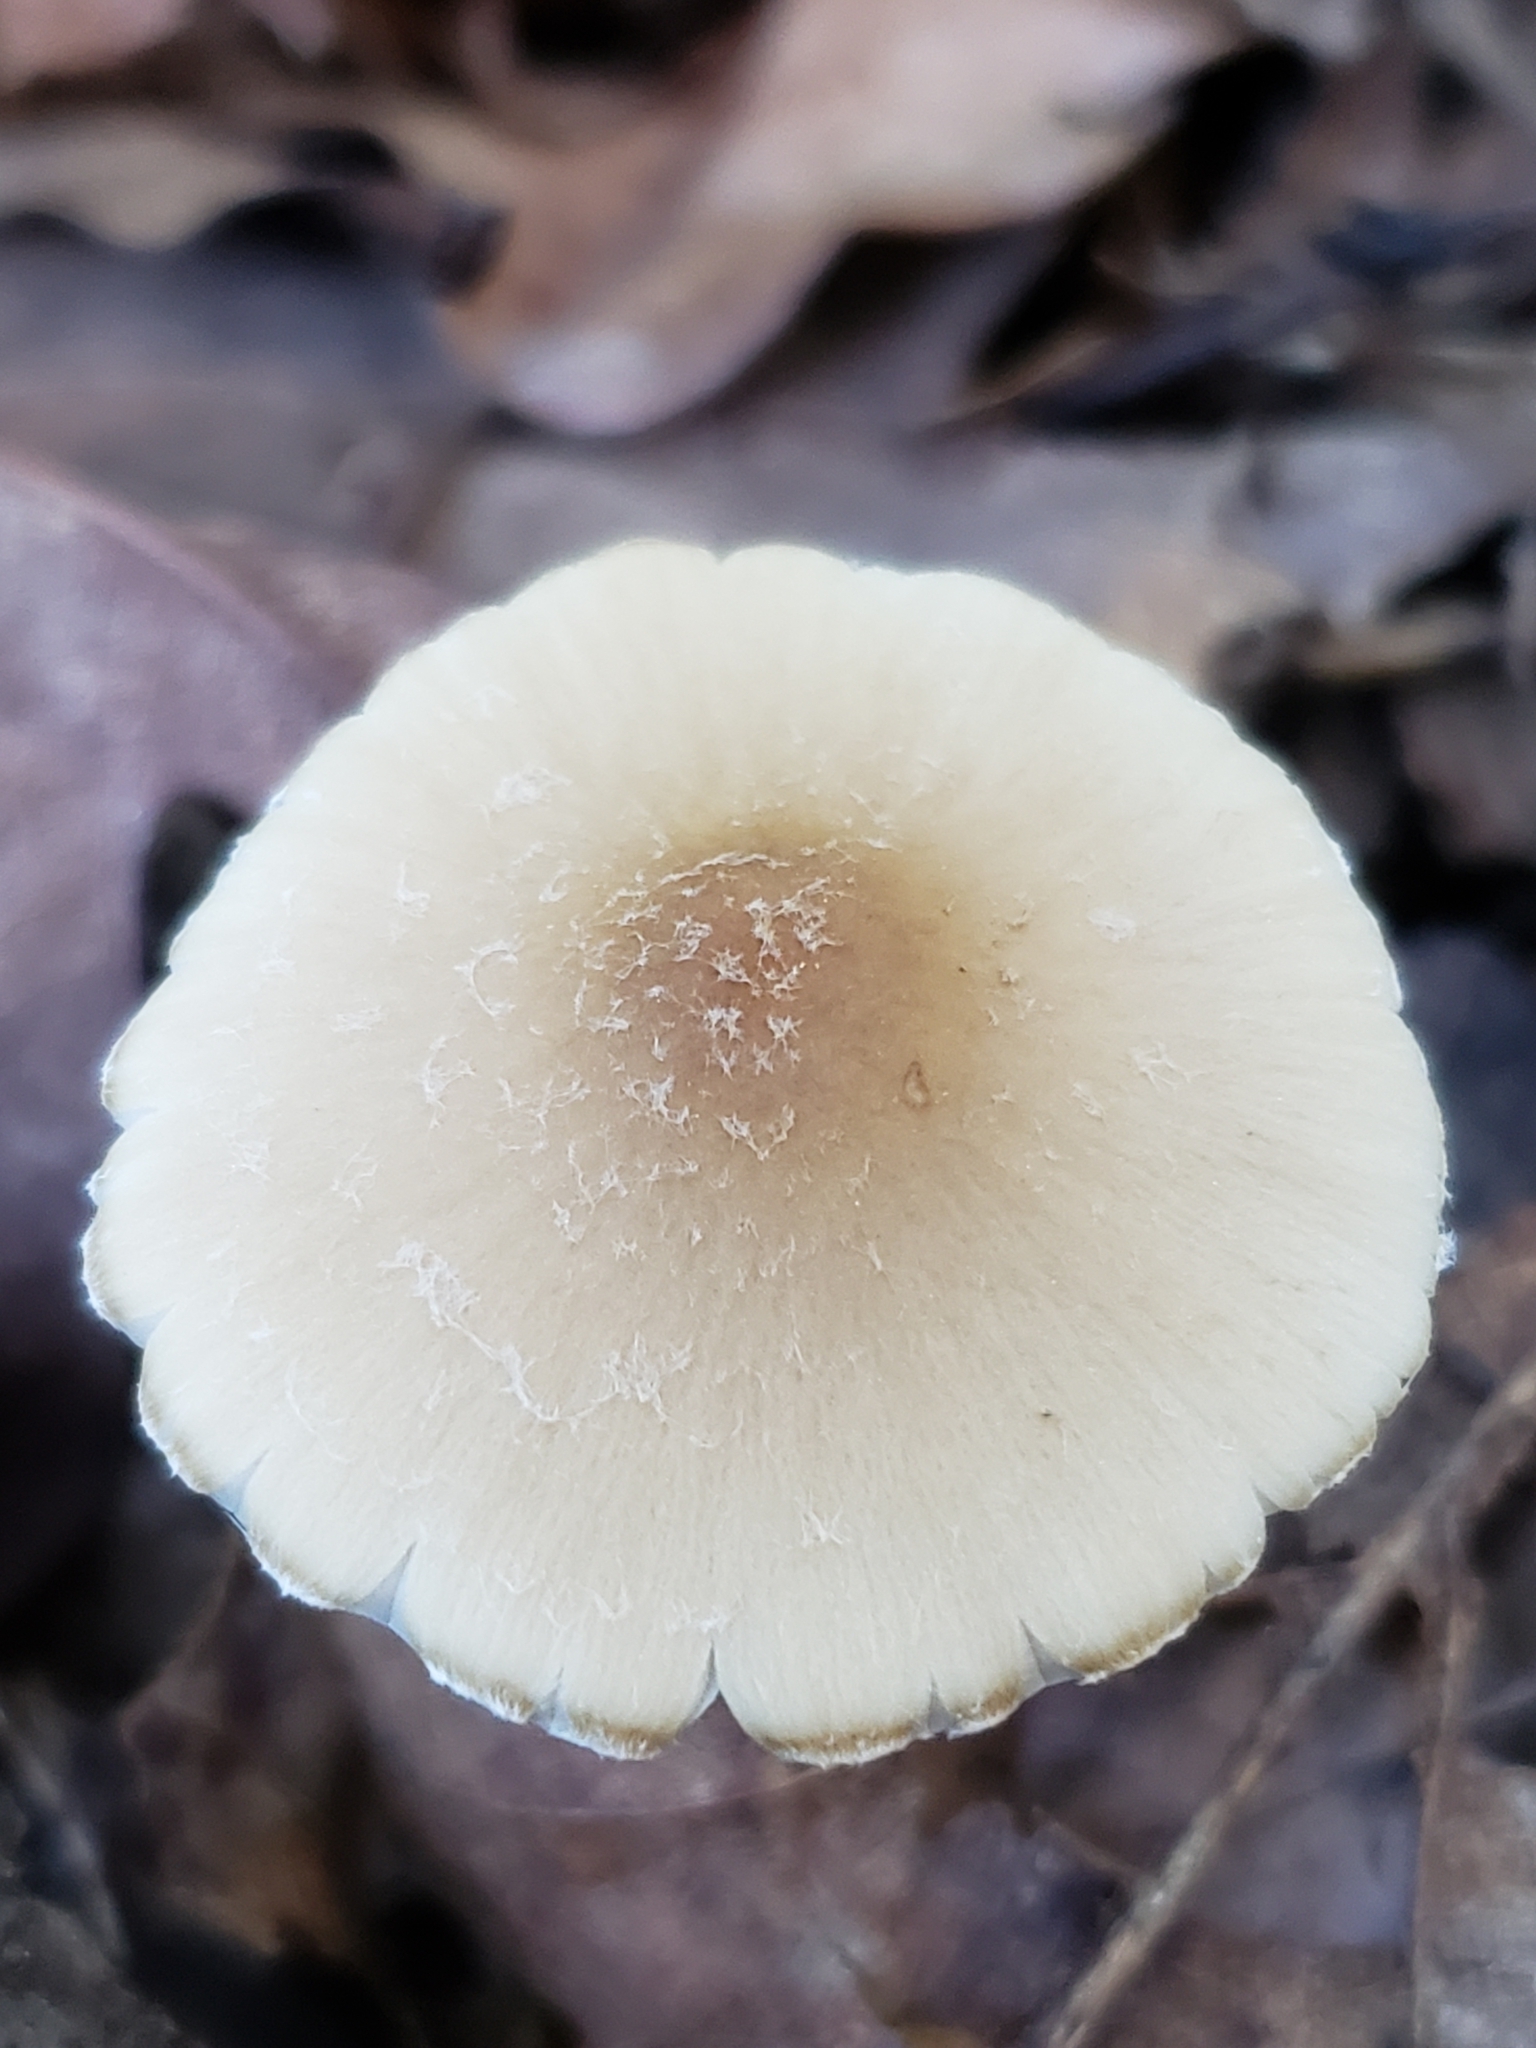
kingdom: Fungi
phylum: Basidiomycota
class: Agaricomycetes
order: Agaricales
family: Psathyrellaceae
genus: Candolleomyces
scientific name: Candolleomyces candolleanus
